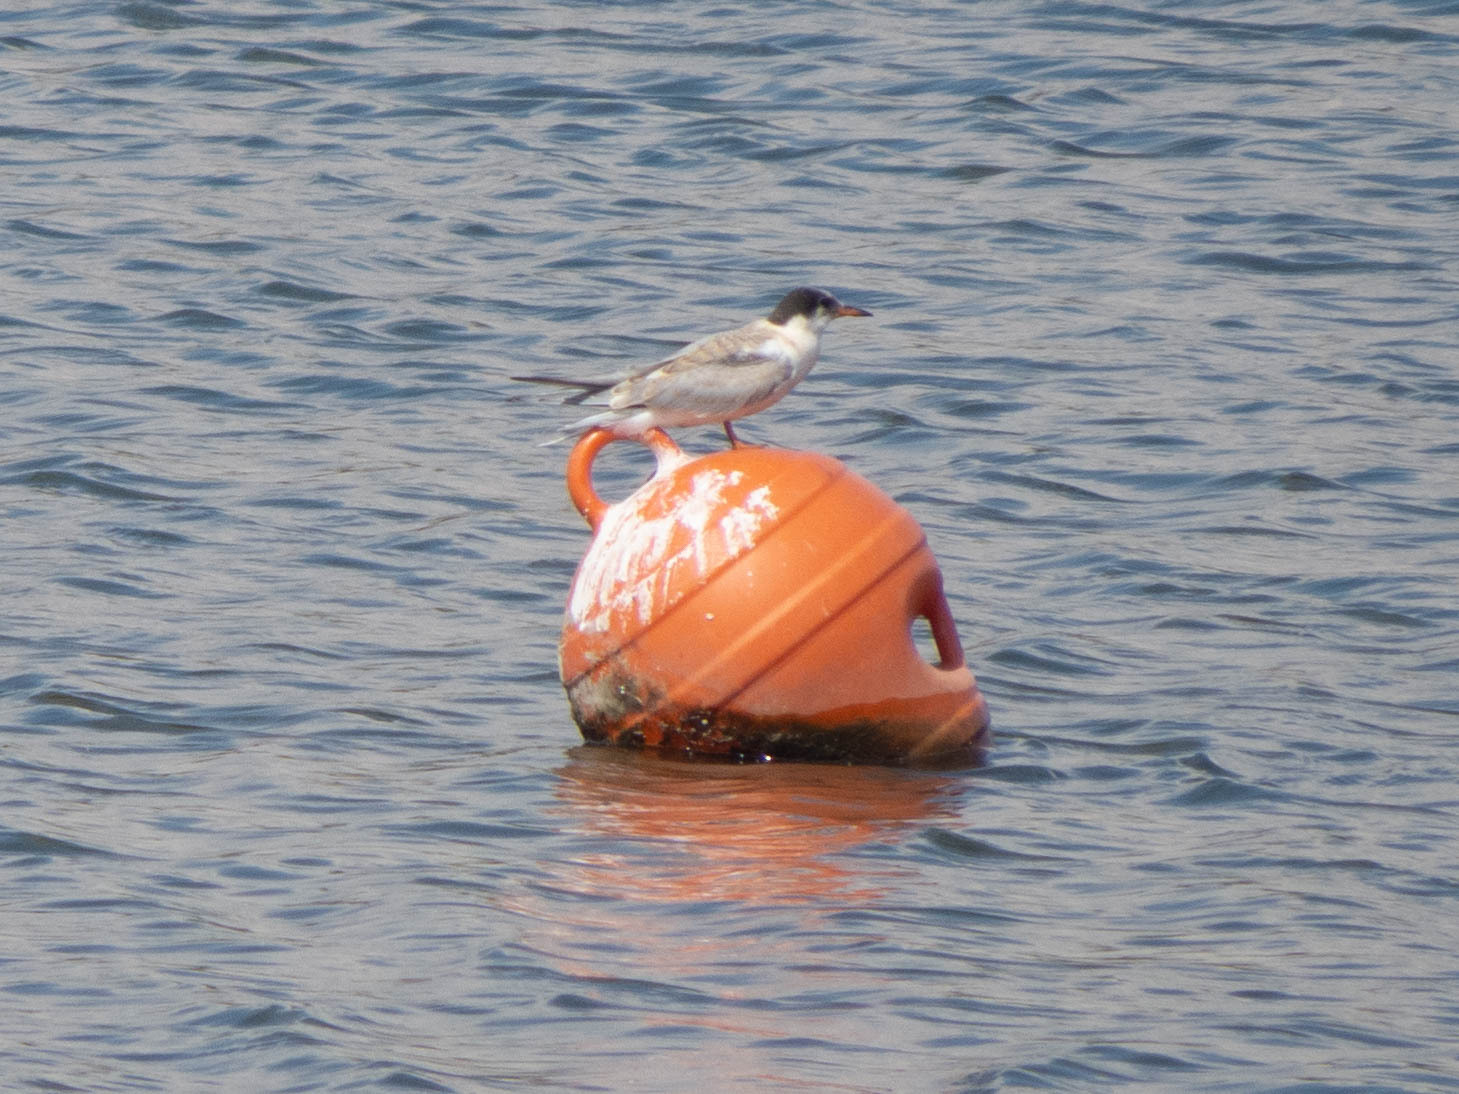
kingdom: Animalia
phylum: Chordata
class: Aves
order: Charadriiformes
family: Laridae
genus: Sterna
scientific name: Sterna hirundo
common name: Common tern
